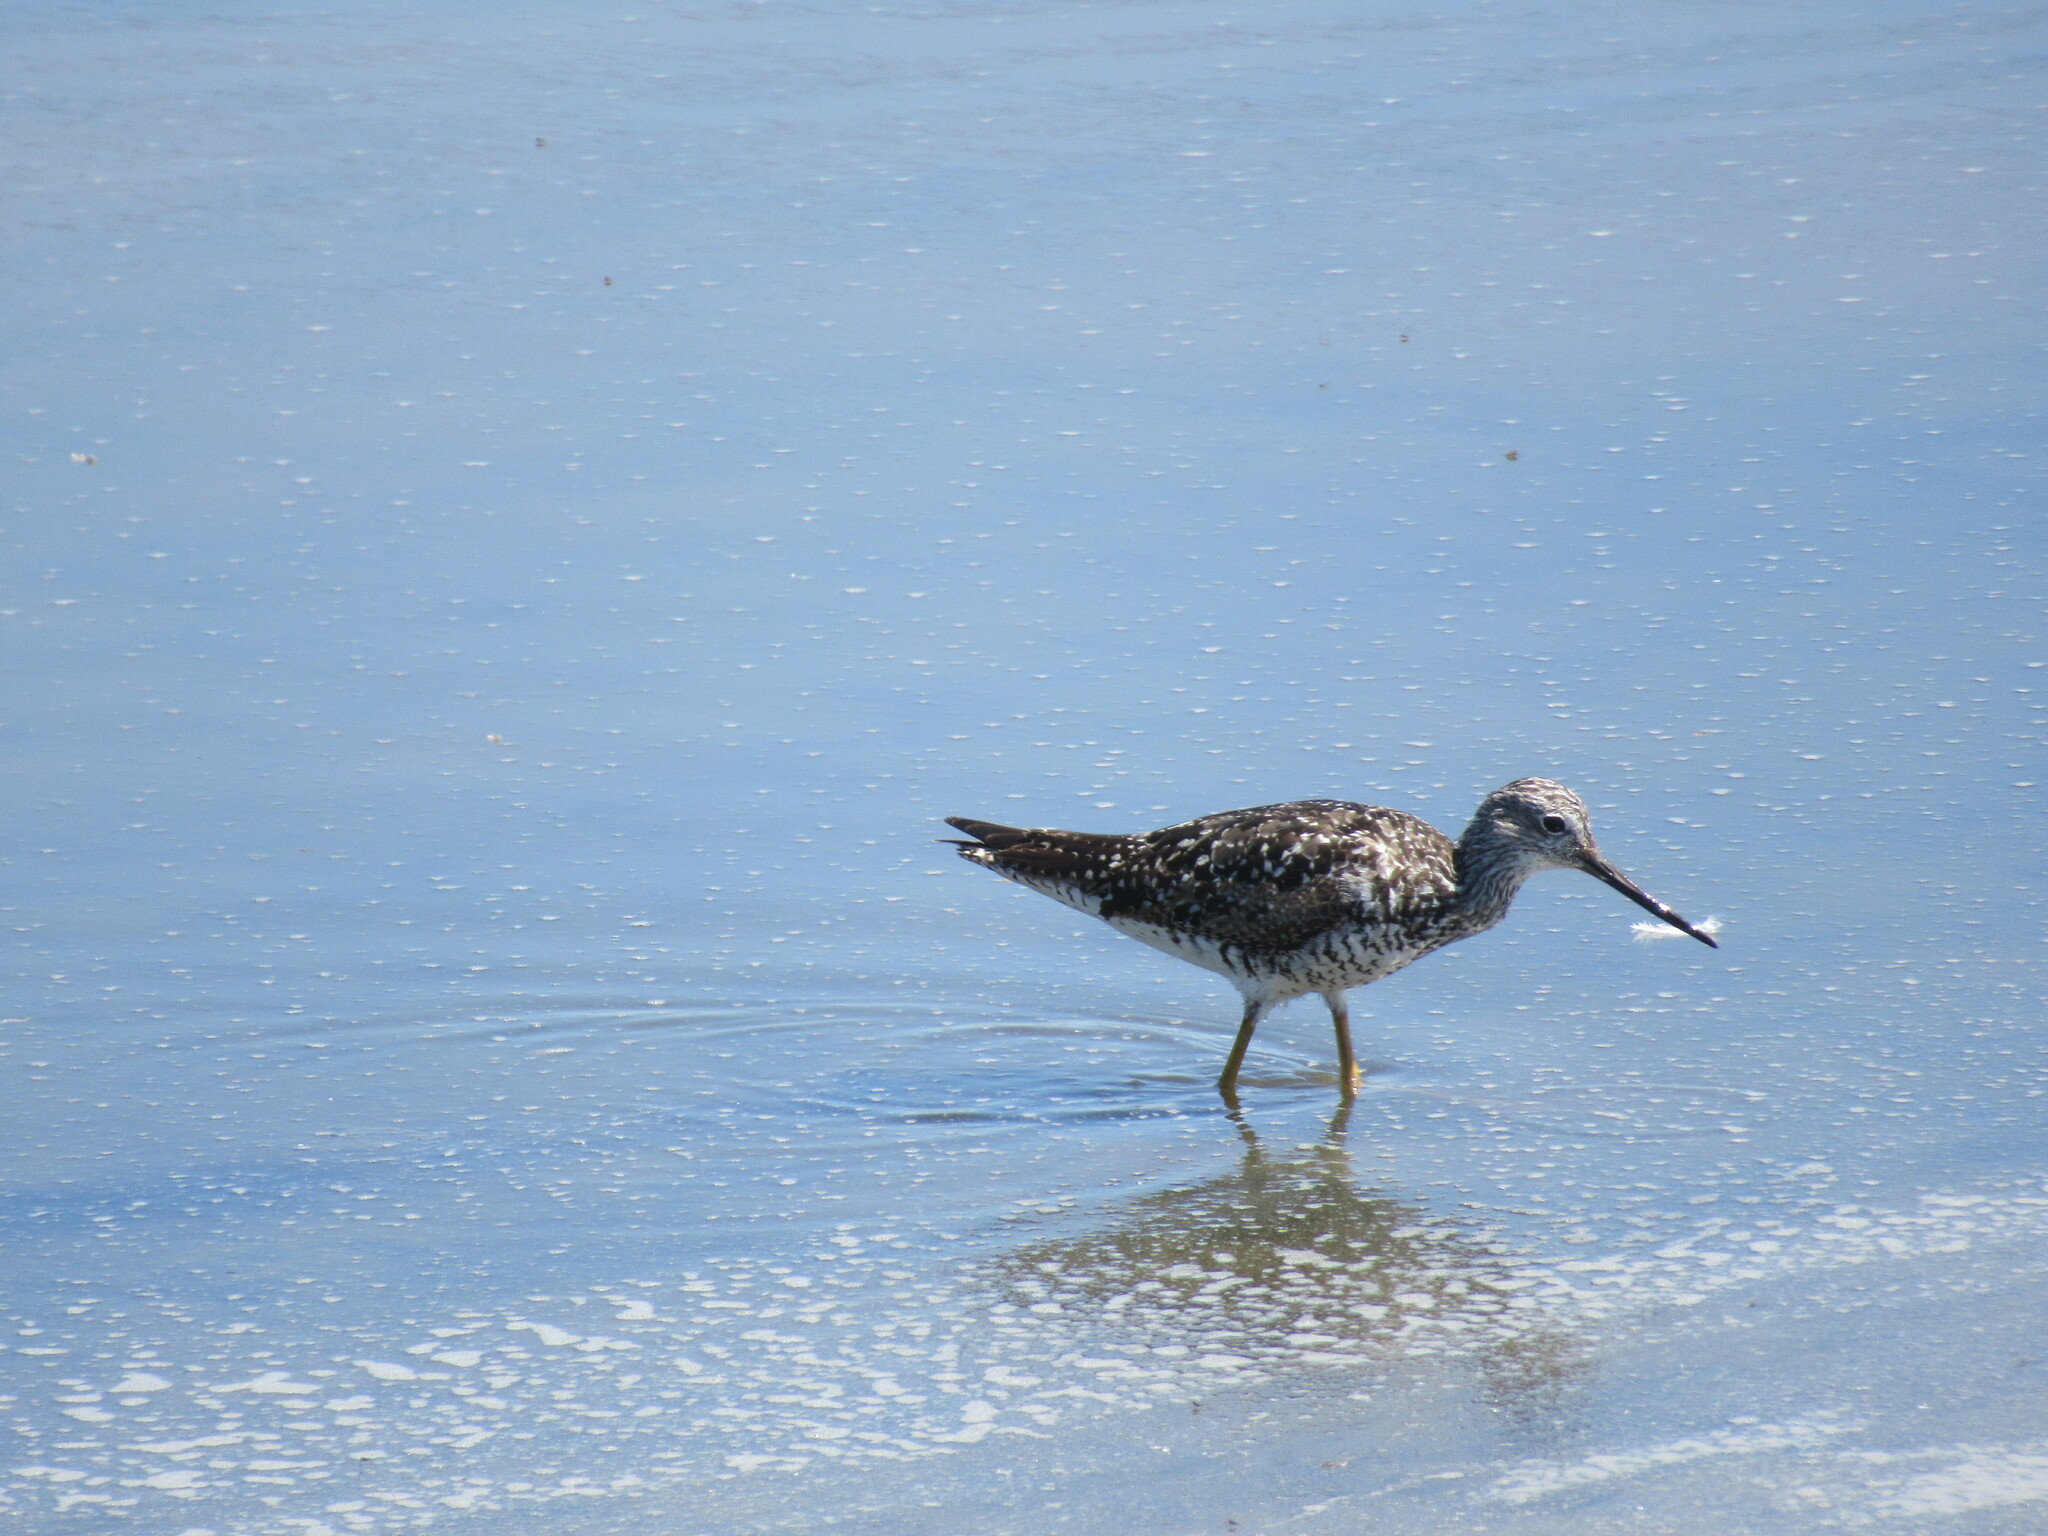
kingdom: Animalia
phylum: Chordata
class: Aves
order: Charadriiformes
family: Scolopacidae
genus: Tringa
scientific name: Tringa melanoleuca
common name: Greater yellowlegs
